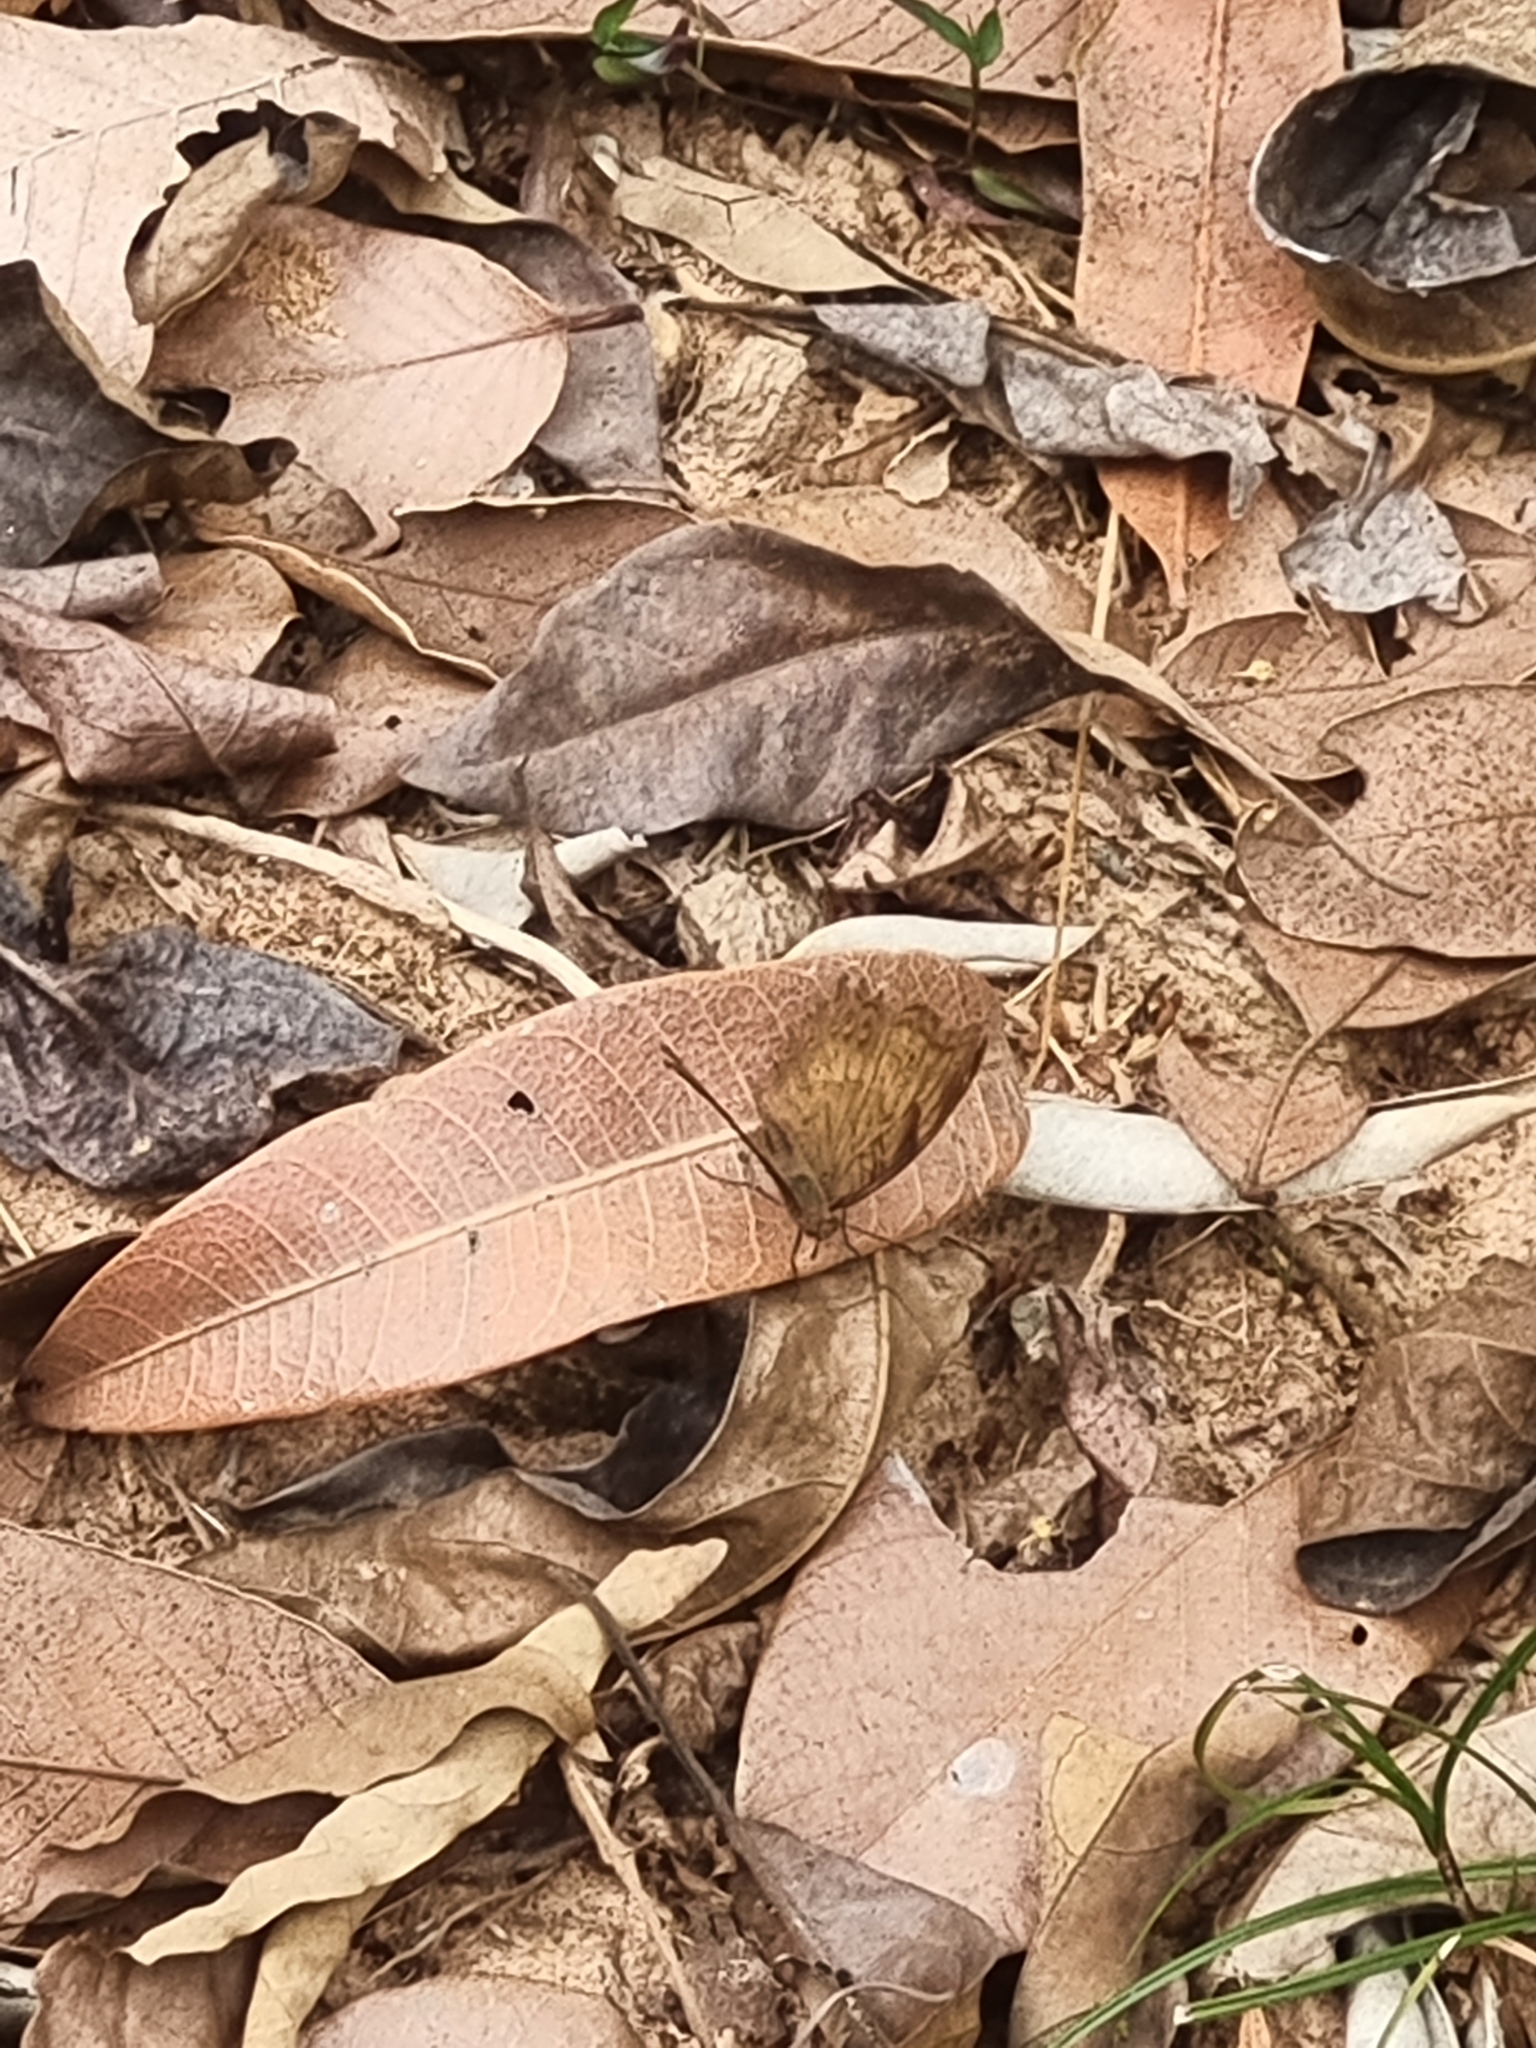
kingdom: Animalia
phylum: Arthropoda
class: Insecta
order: Lepidoptera
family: Nymphalidae
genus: Junonia
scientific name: Junonia iphita
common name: Chocolate pansy
